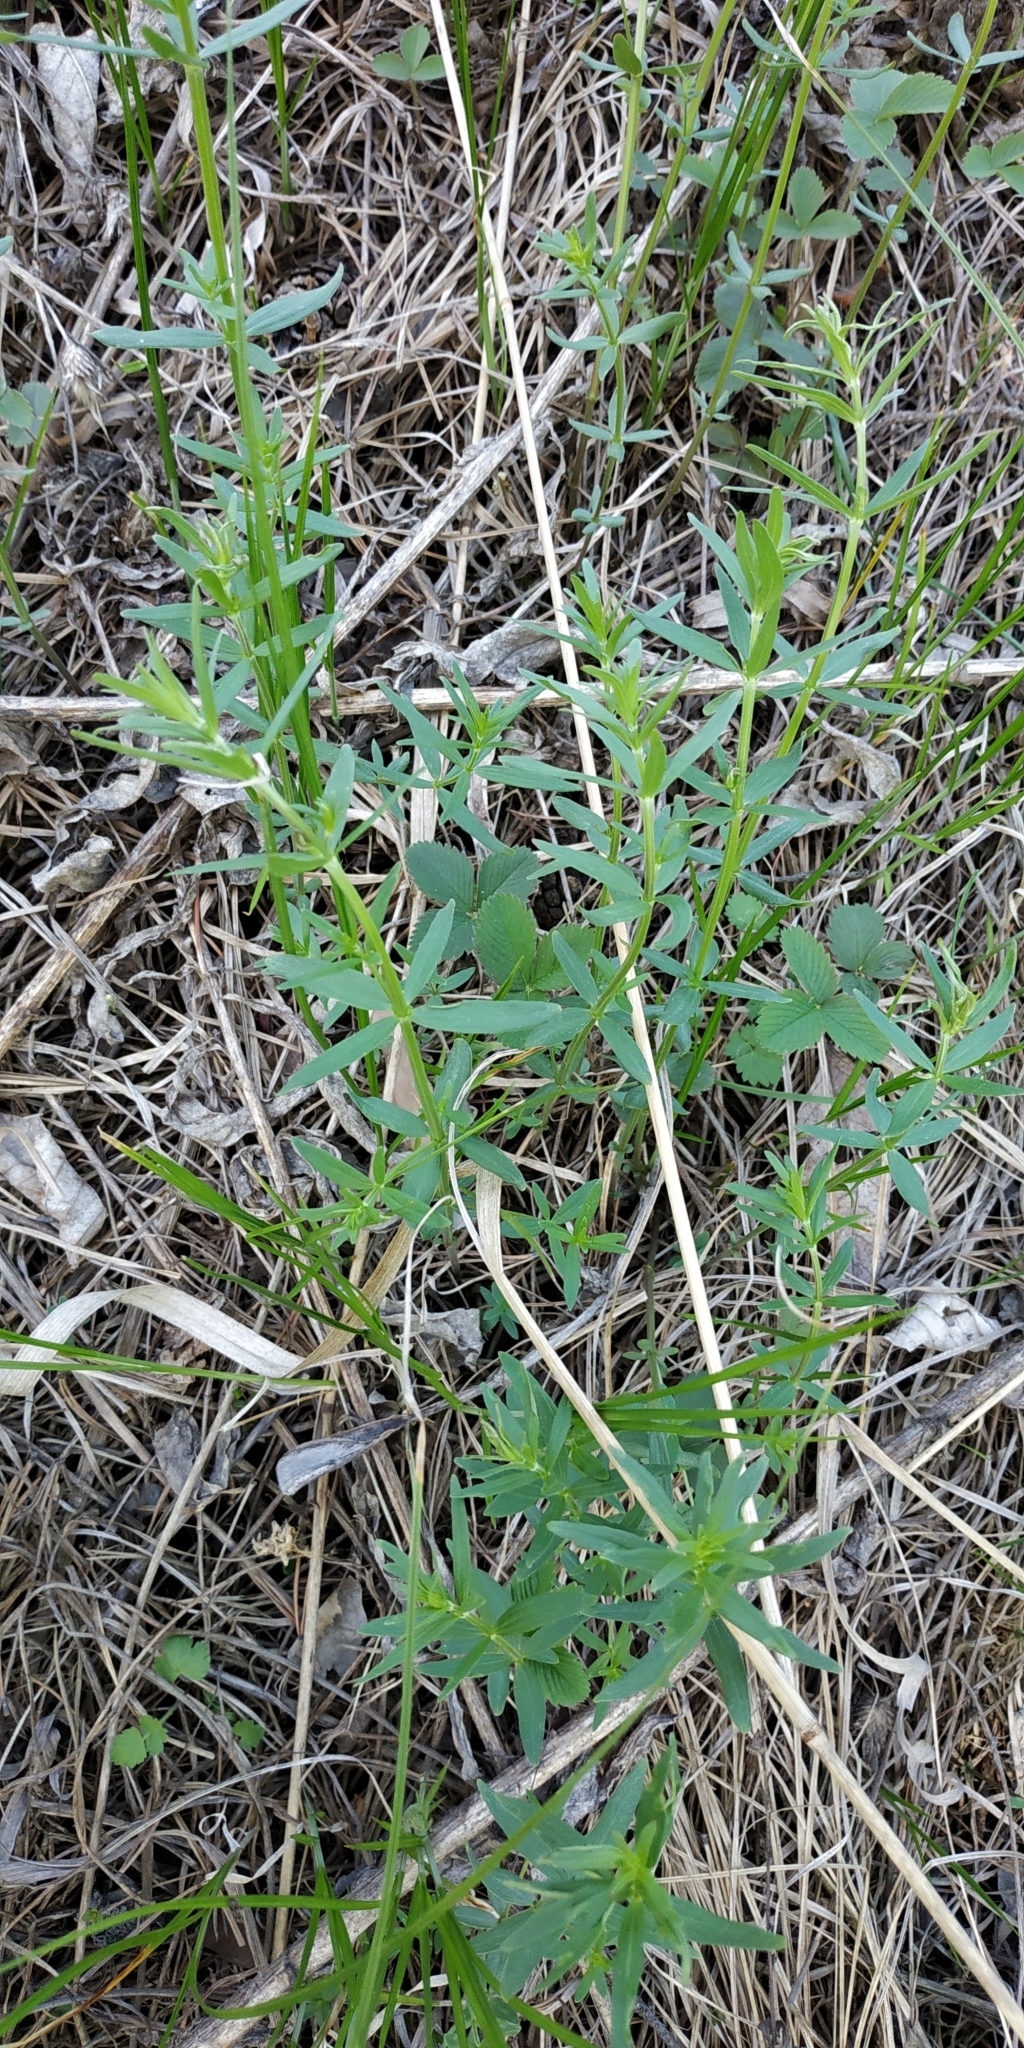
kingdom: Plantae
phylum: Tracheophyta
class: Magnoliopsida
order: Gentianales
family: Rubiaceae
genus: Galium
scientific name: Galium boreale
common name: Northern bedstraw
